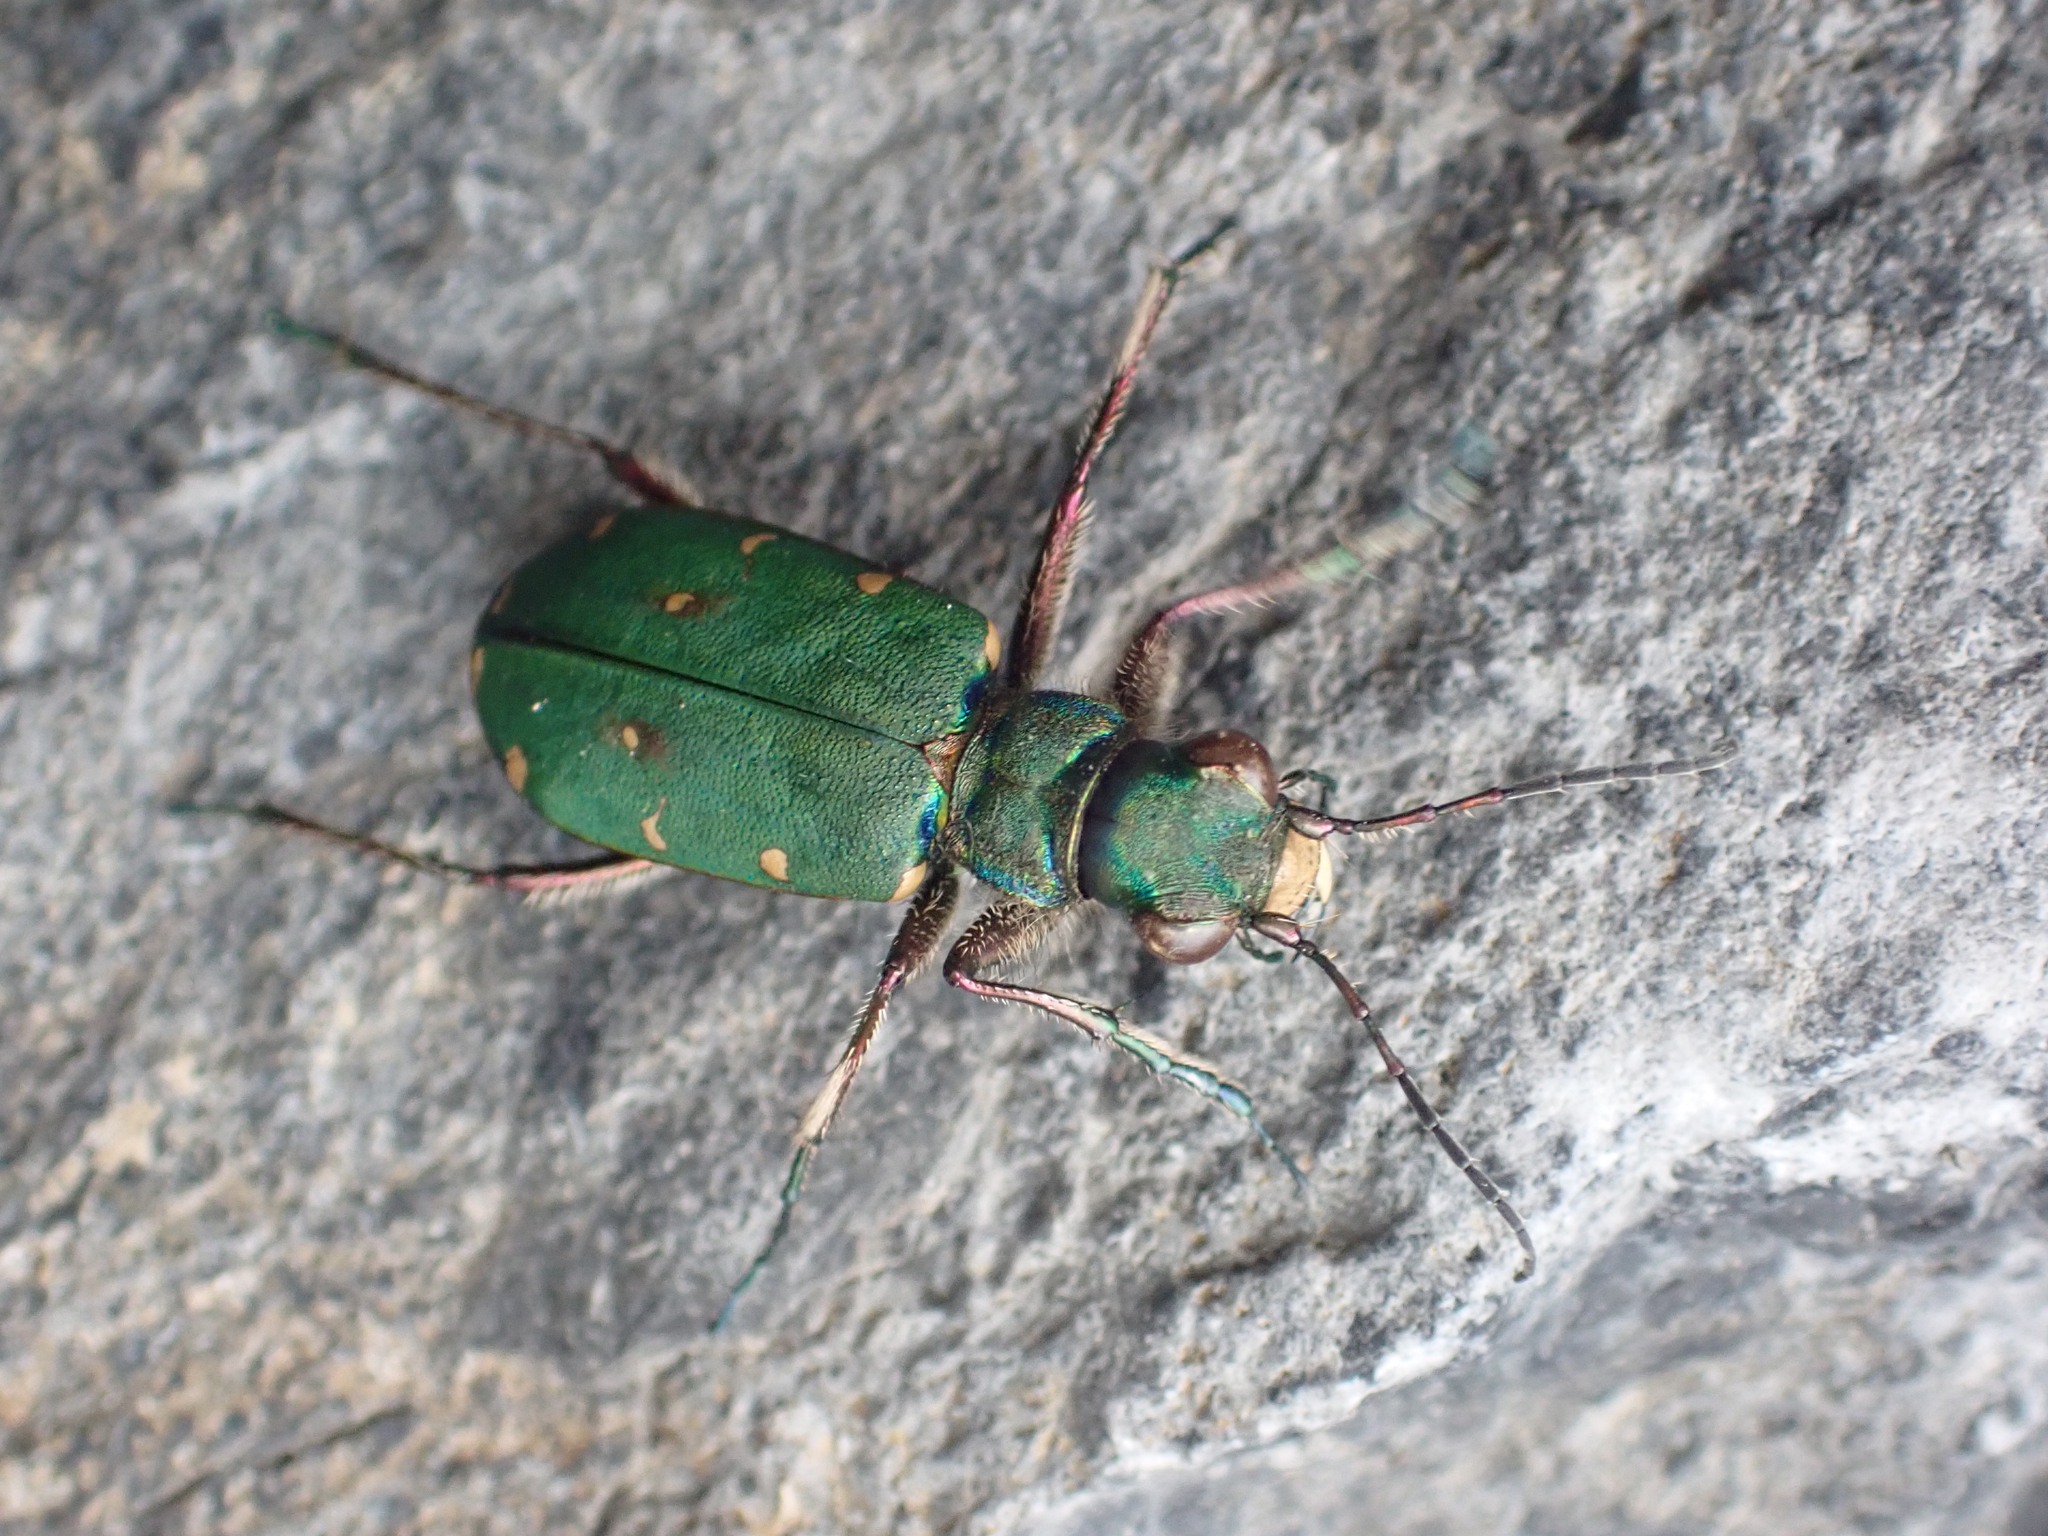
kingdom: Animalia
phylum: Arthropoda
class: Insecta
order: Coleoptera
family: Carabidae
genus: Cicindela
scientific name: Cicindela campestris
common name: Common tiger beetle
